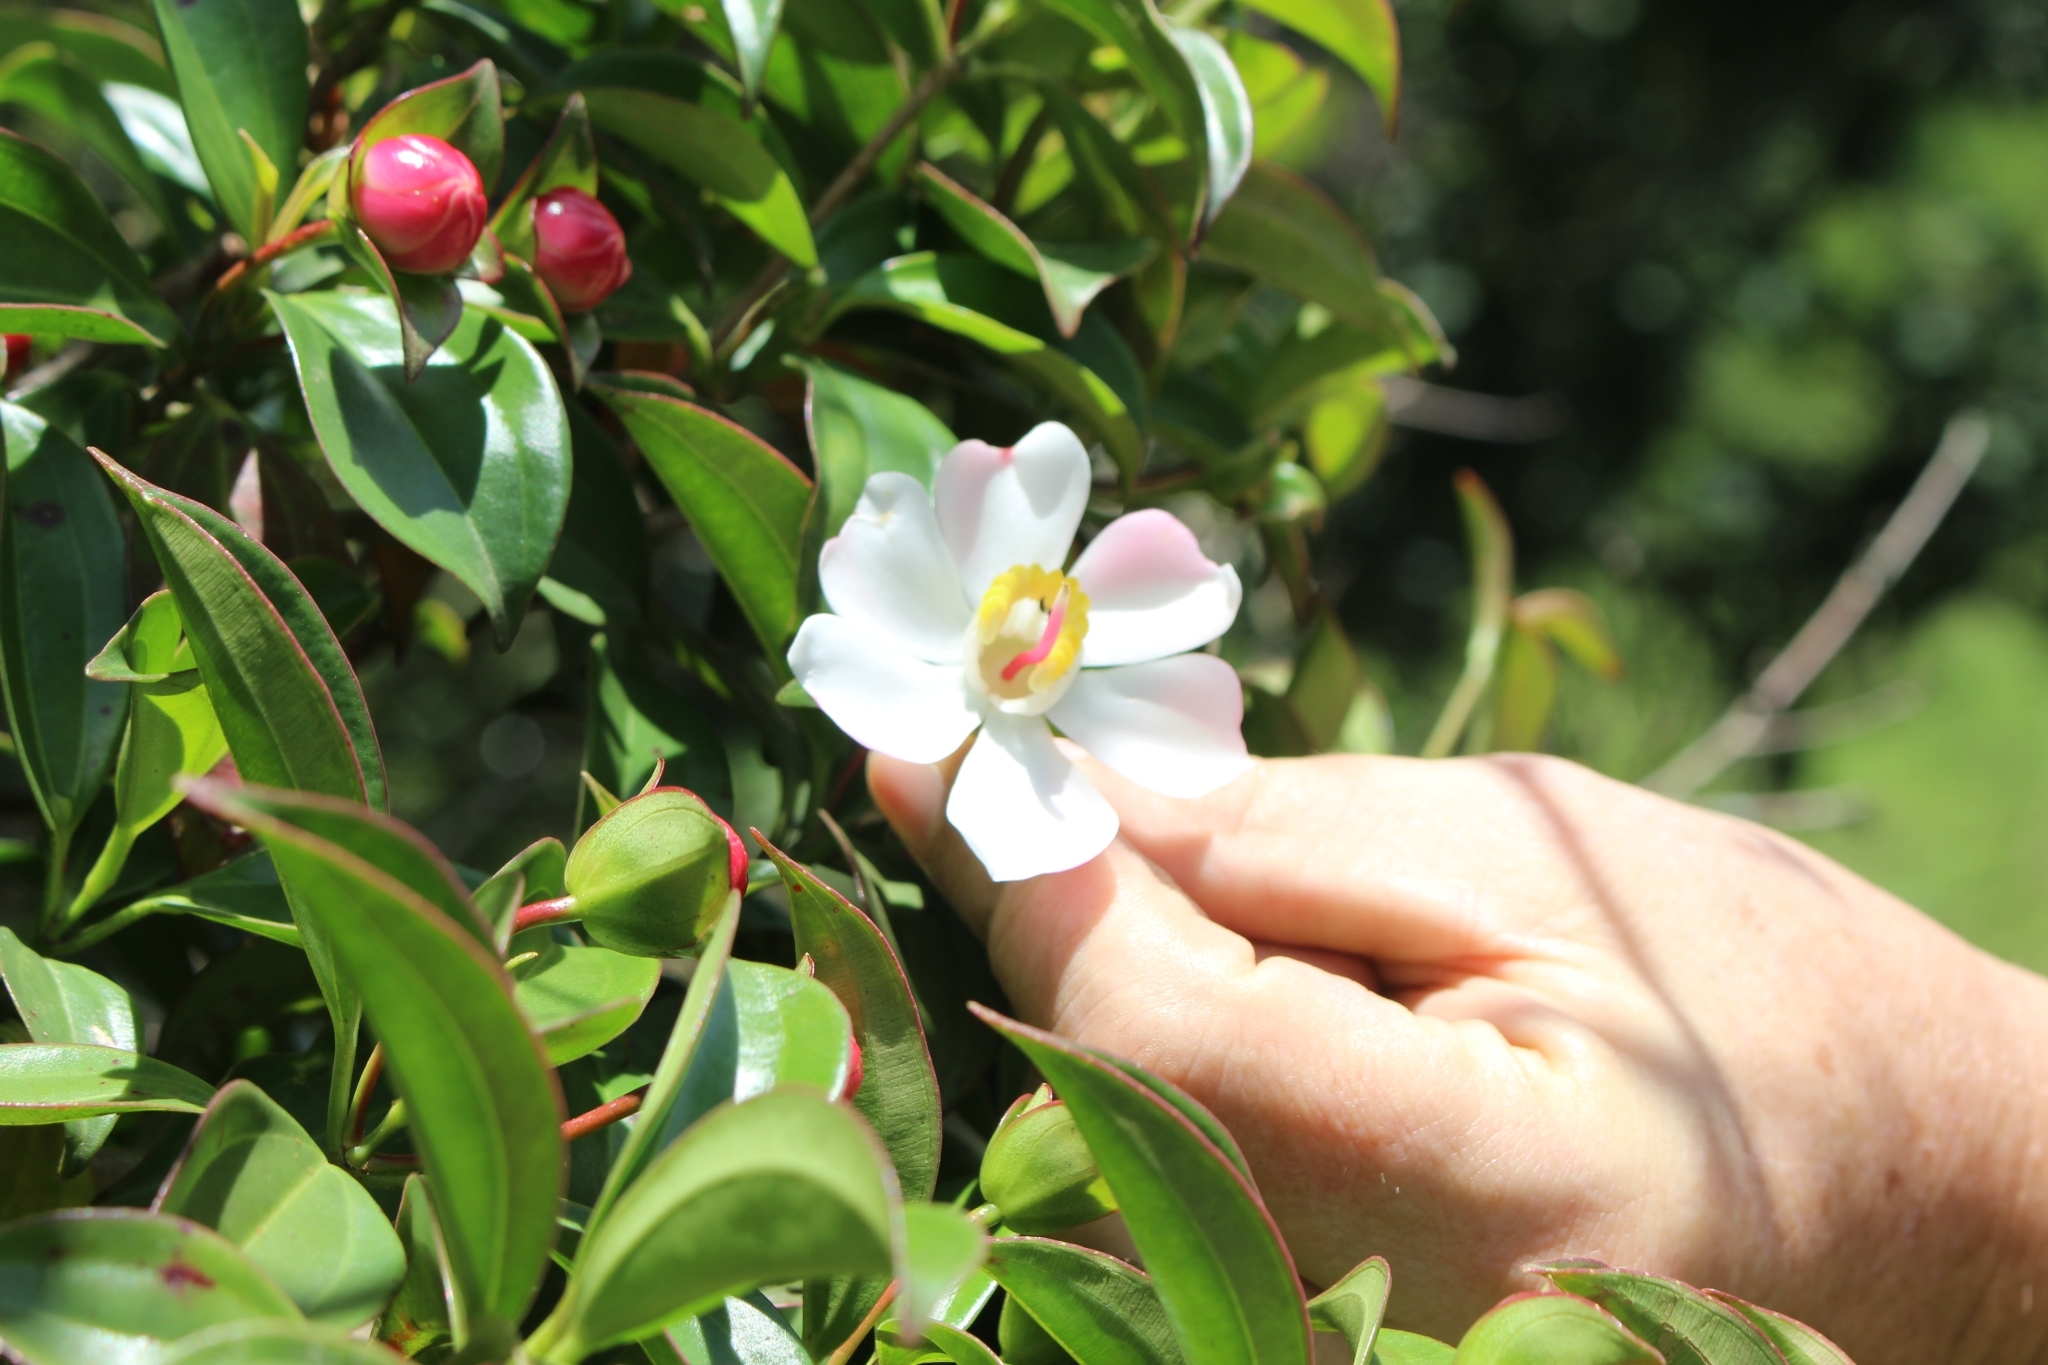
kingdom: Plantae
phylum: Tracheophyta
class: Magnoliopsida
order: Myrtales
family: Melastomataceae
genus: Blakea
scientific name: Blakea gracilis
